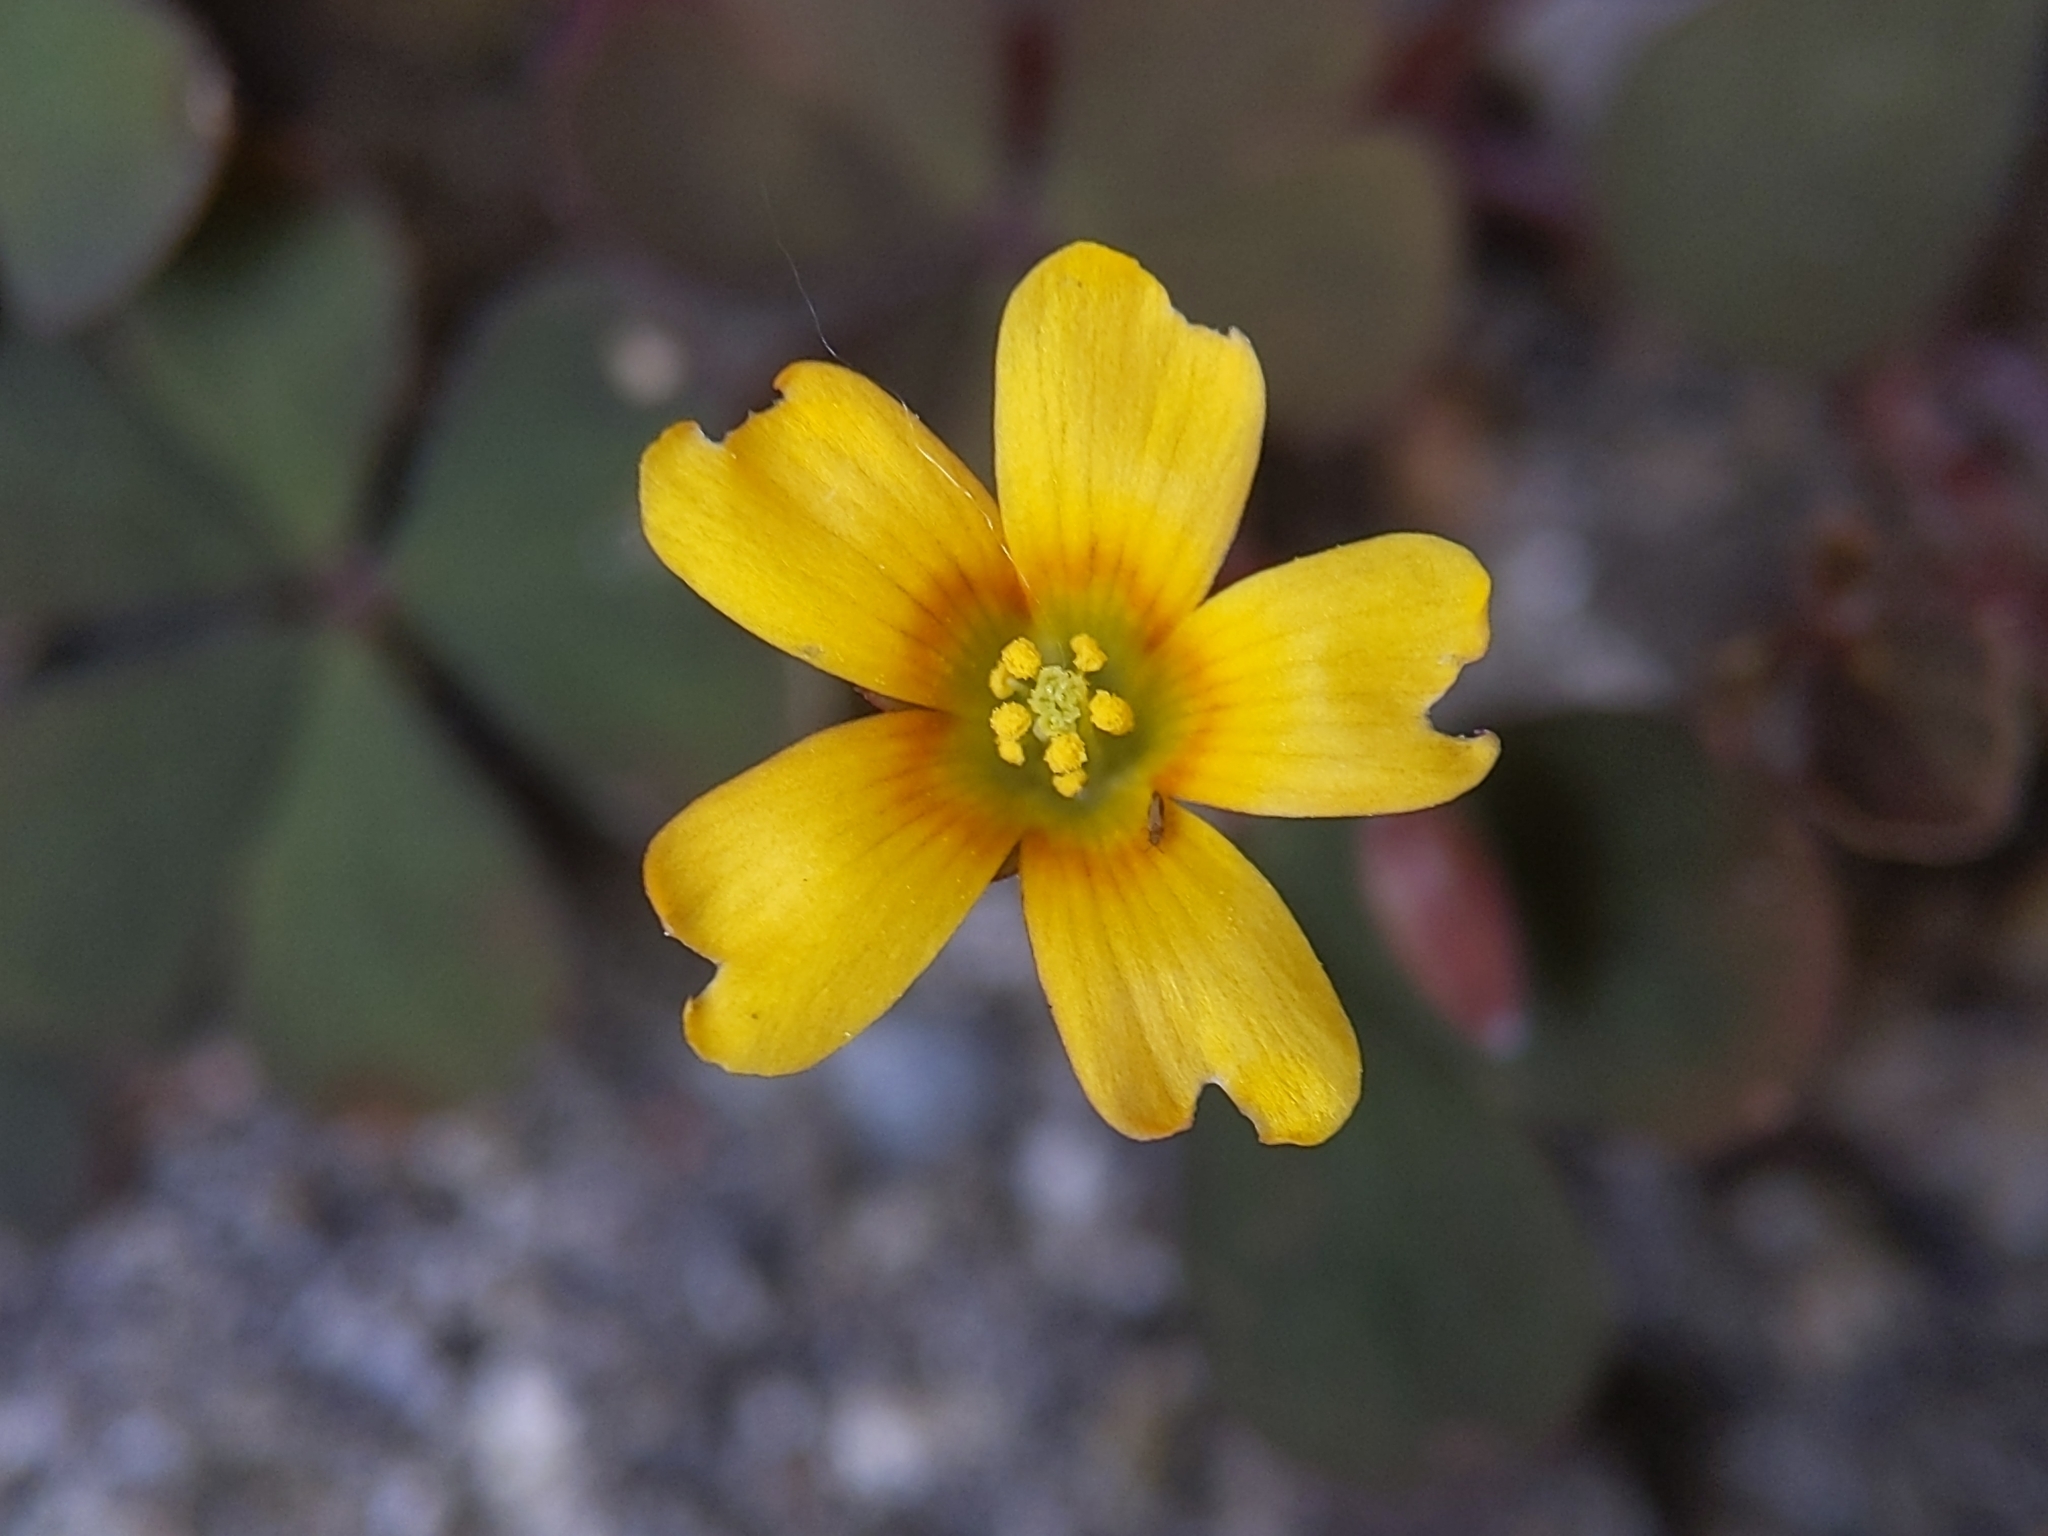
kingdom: Plantae
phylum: Tracheophyta
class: Magnoliopsida
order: Oxalidales
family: Oxalidaceae
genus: Oxalis
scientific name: Oxalis corniculata
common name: Procumbent yellow-sorrel
